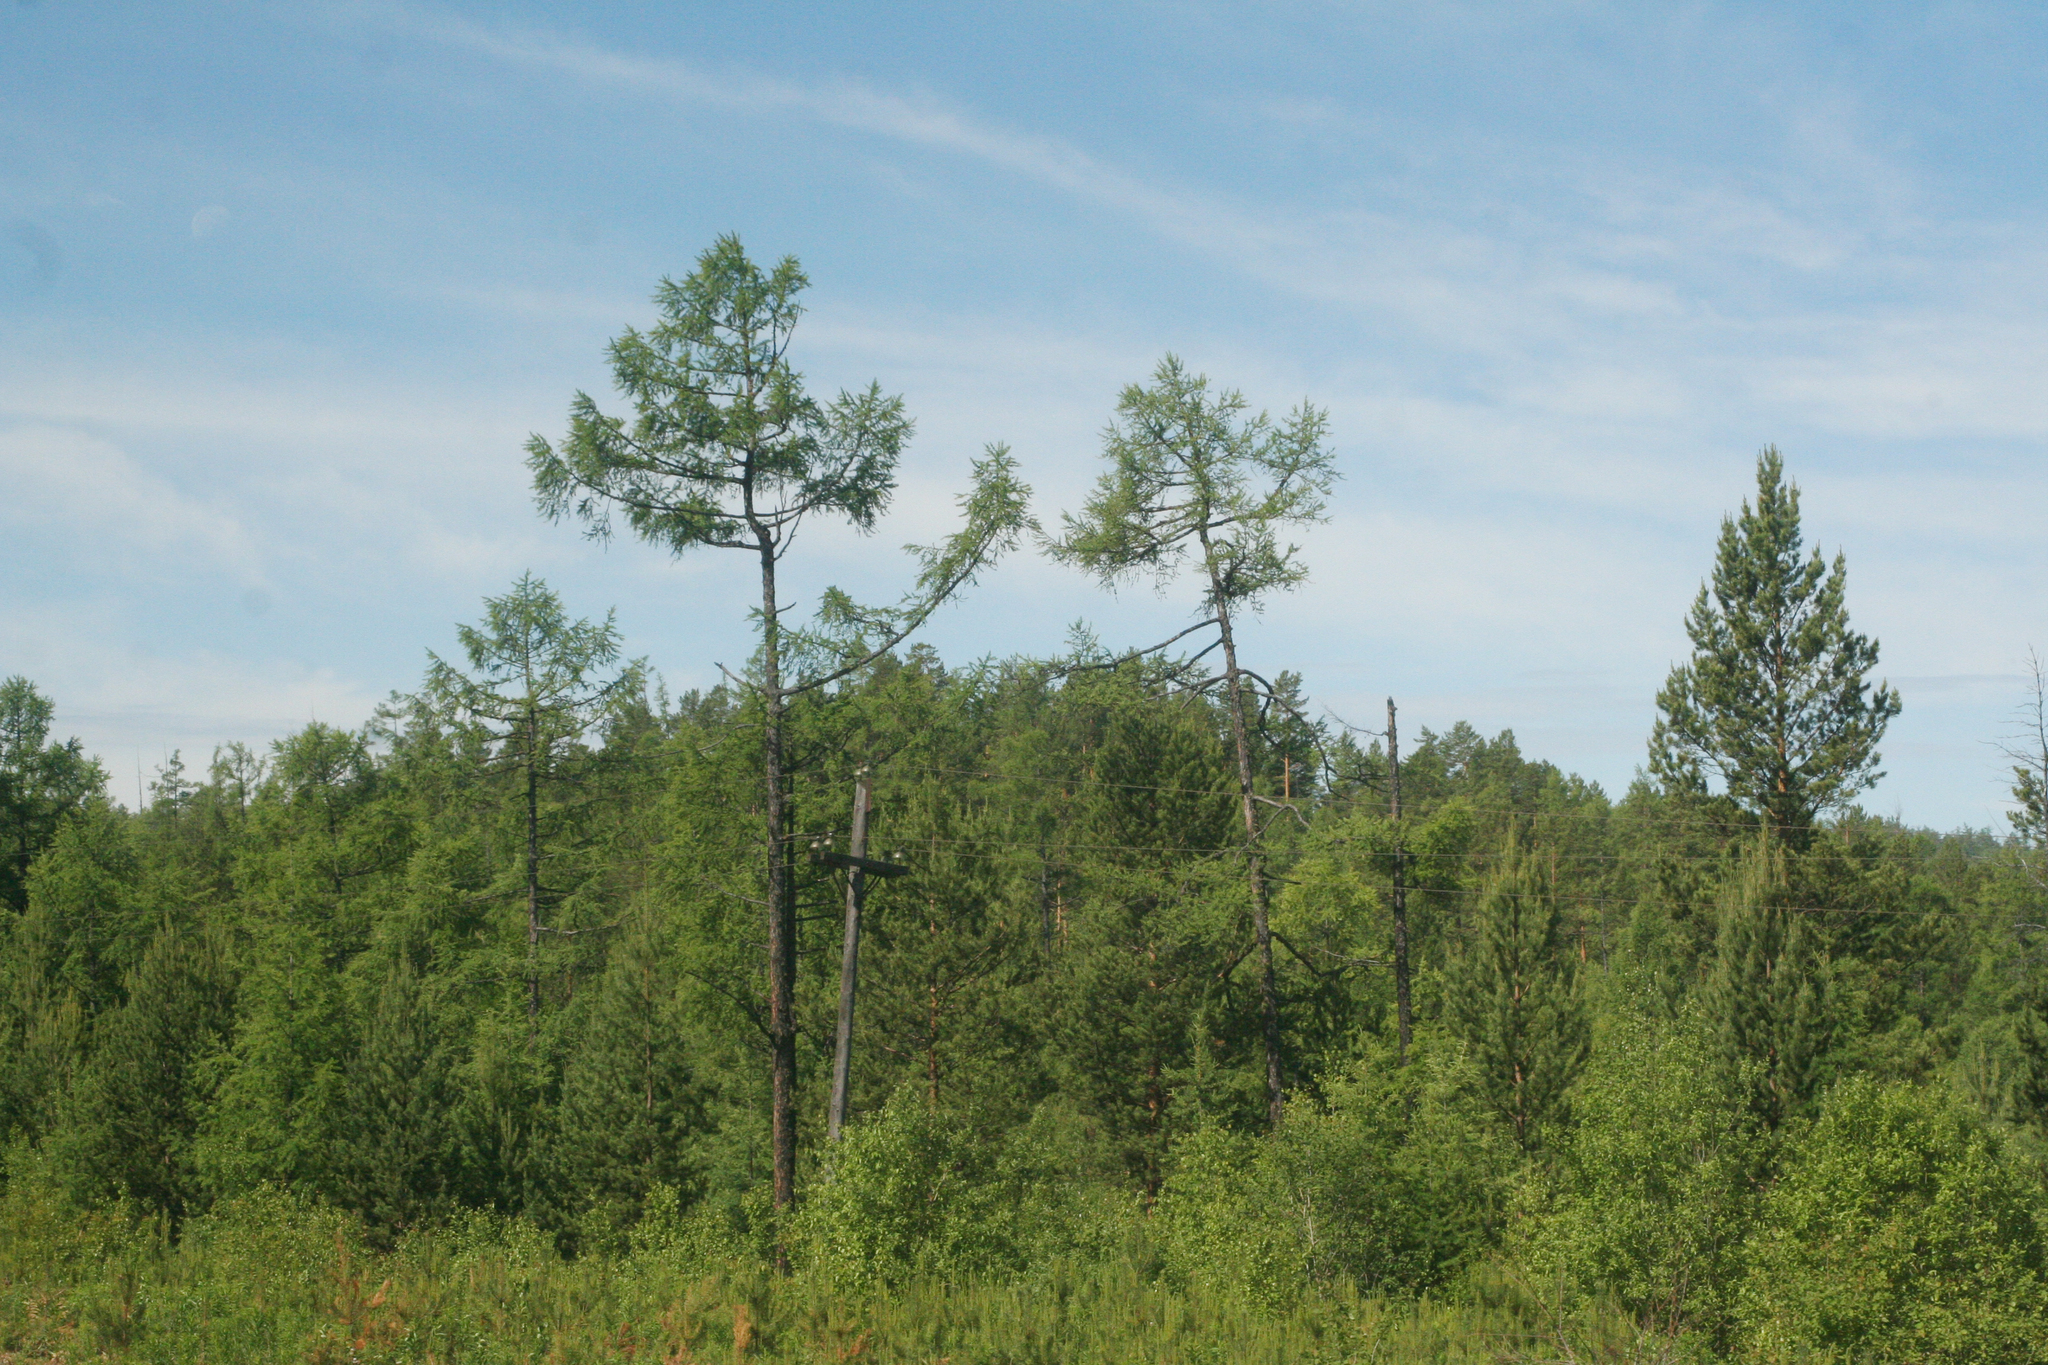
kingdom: Plantae
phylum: Tracheophyta
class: Pinopsida
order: Pinales
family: Pinaceae
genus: Larix
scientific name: Larix sibirica
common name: Siberian larch
